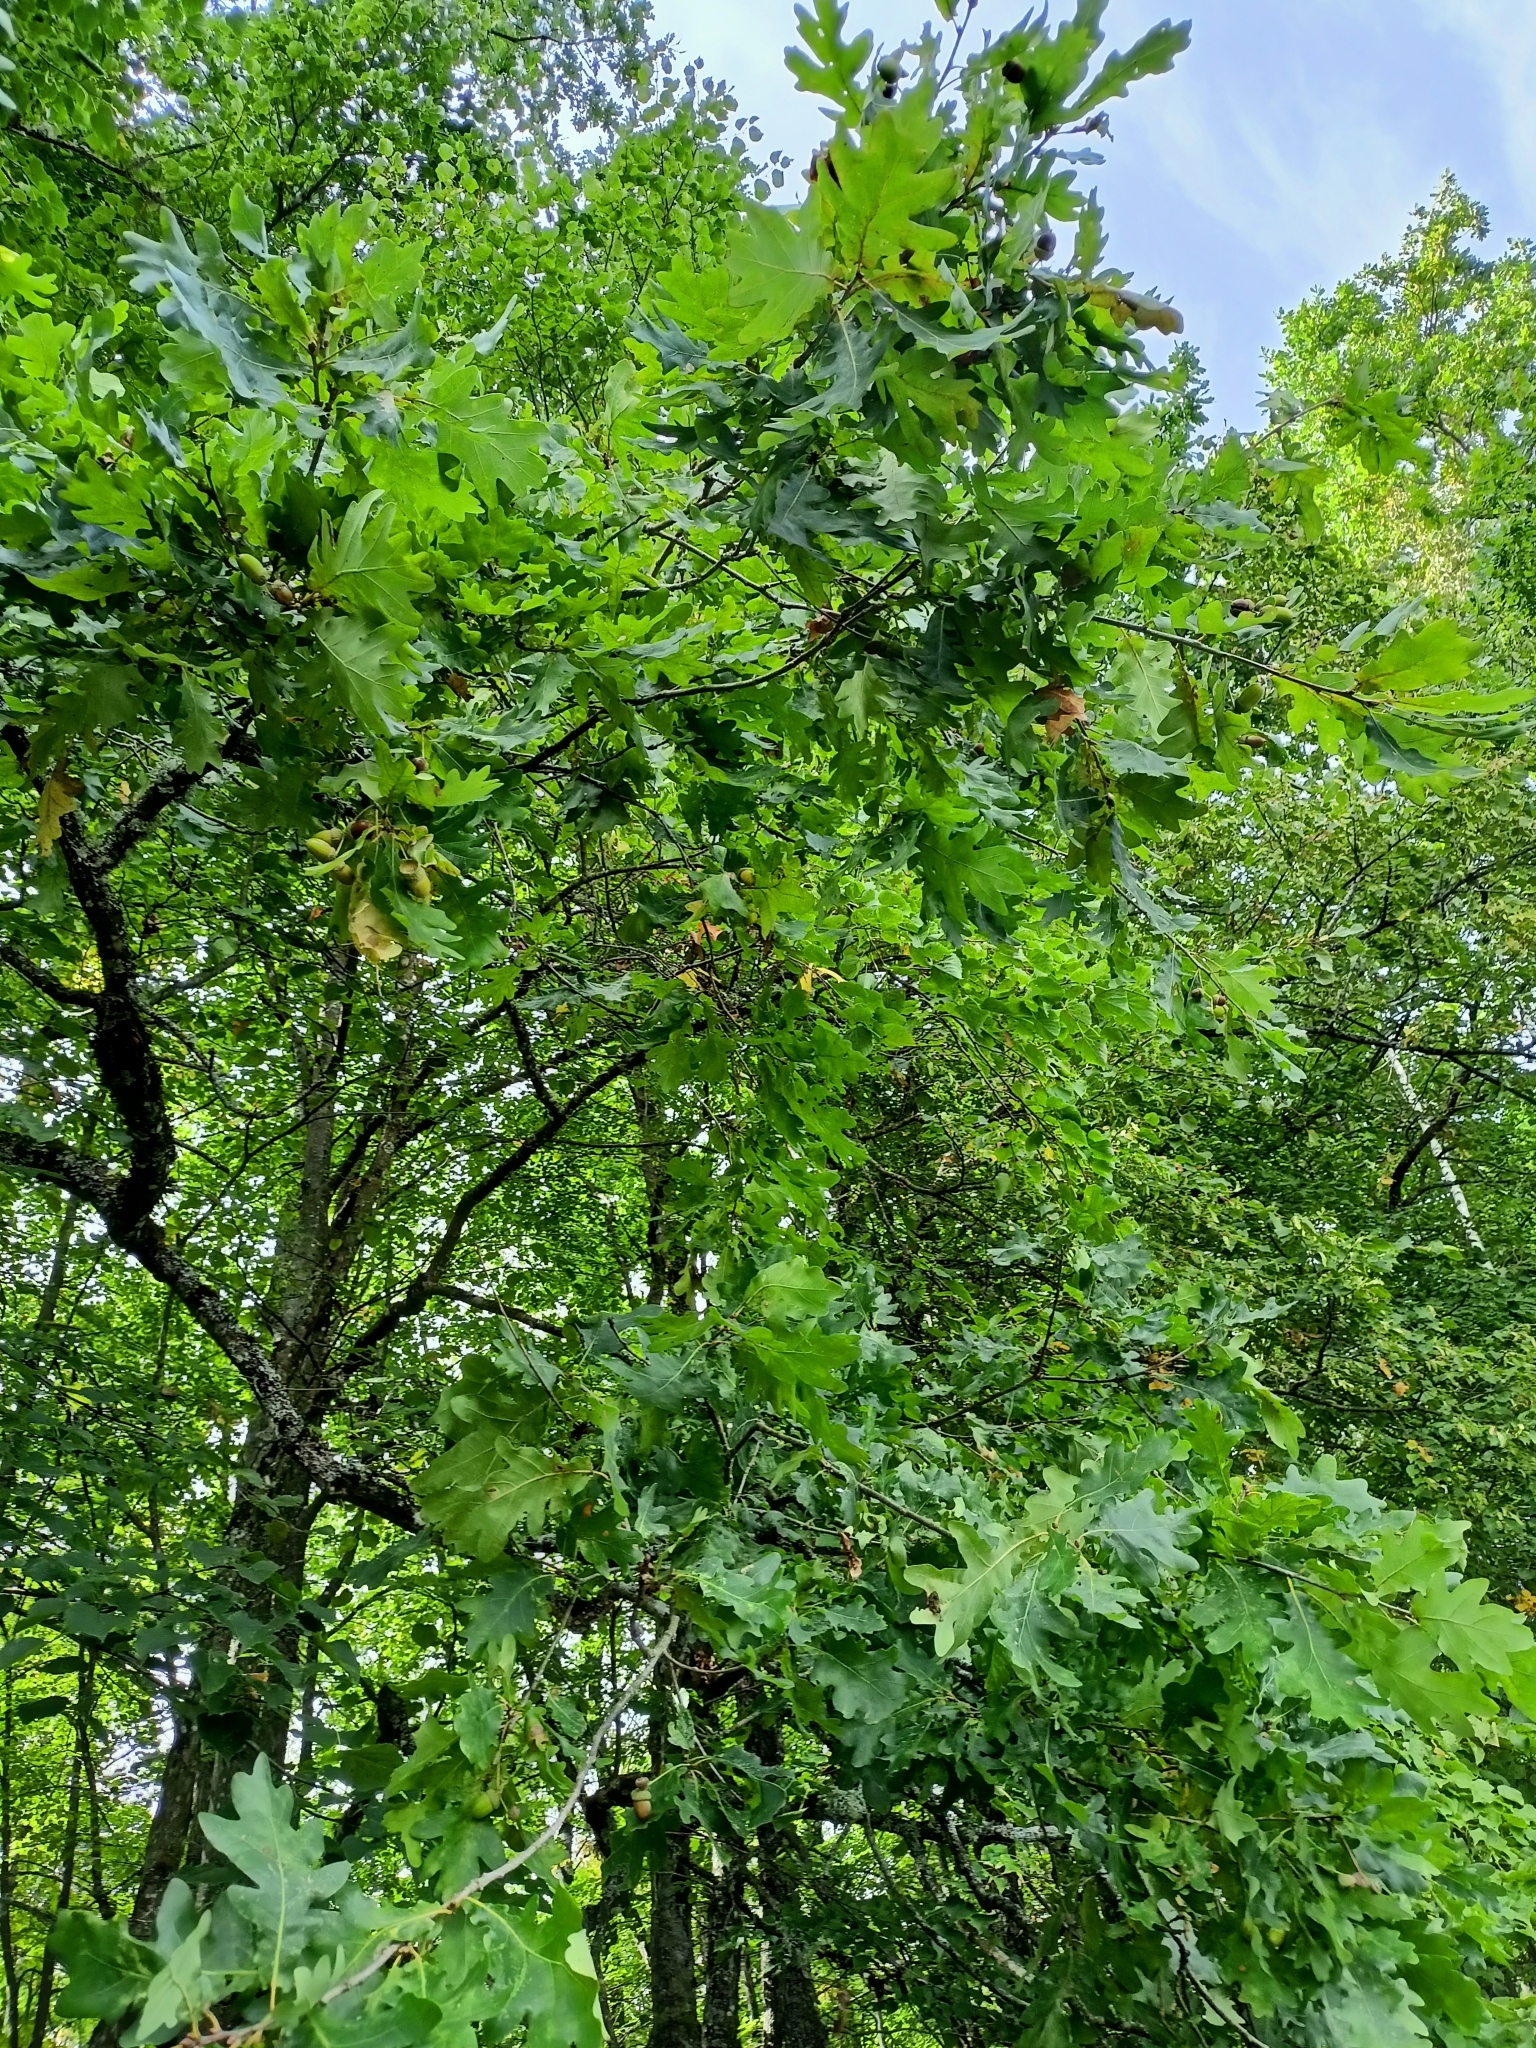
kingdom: Plantae
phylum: Tracheophyta
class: Magnoliopsida
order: Fagales
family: Fagaceae
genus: Quercus
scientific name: Quercus robur
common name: Pedunculate oak
